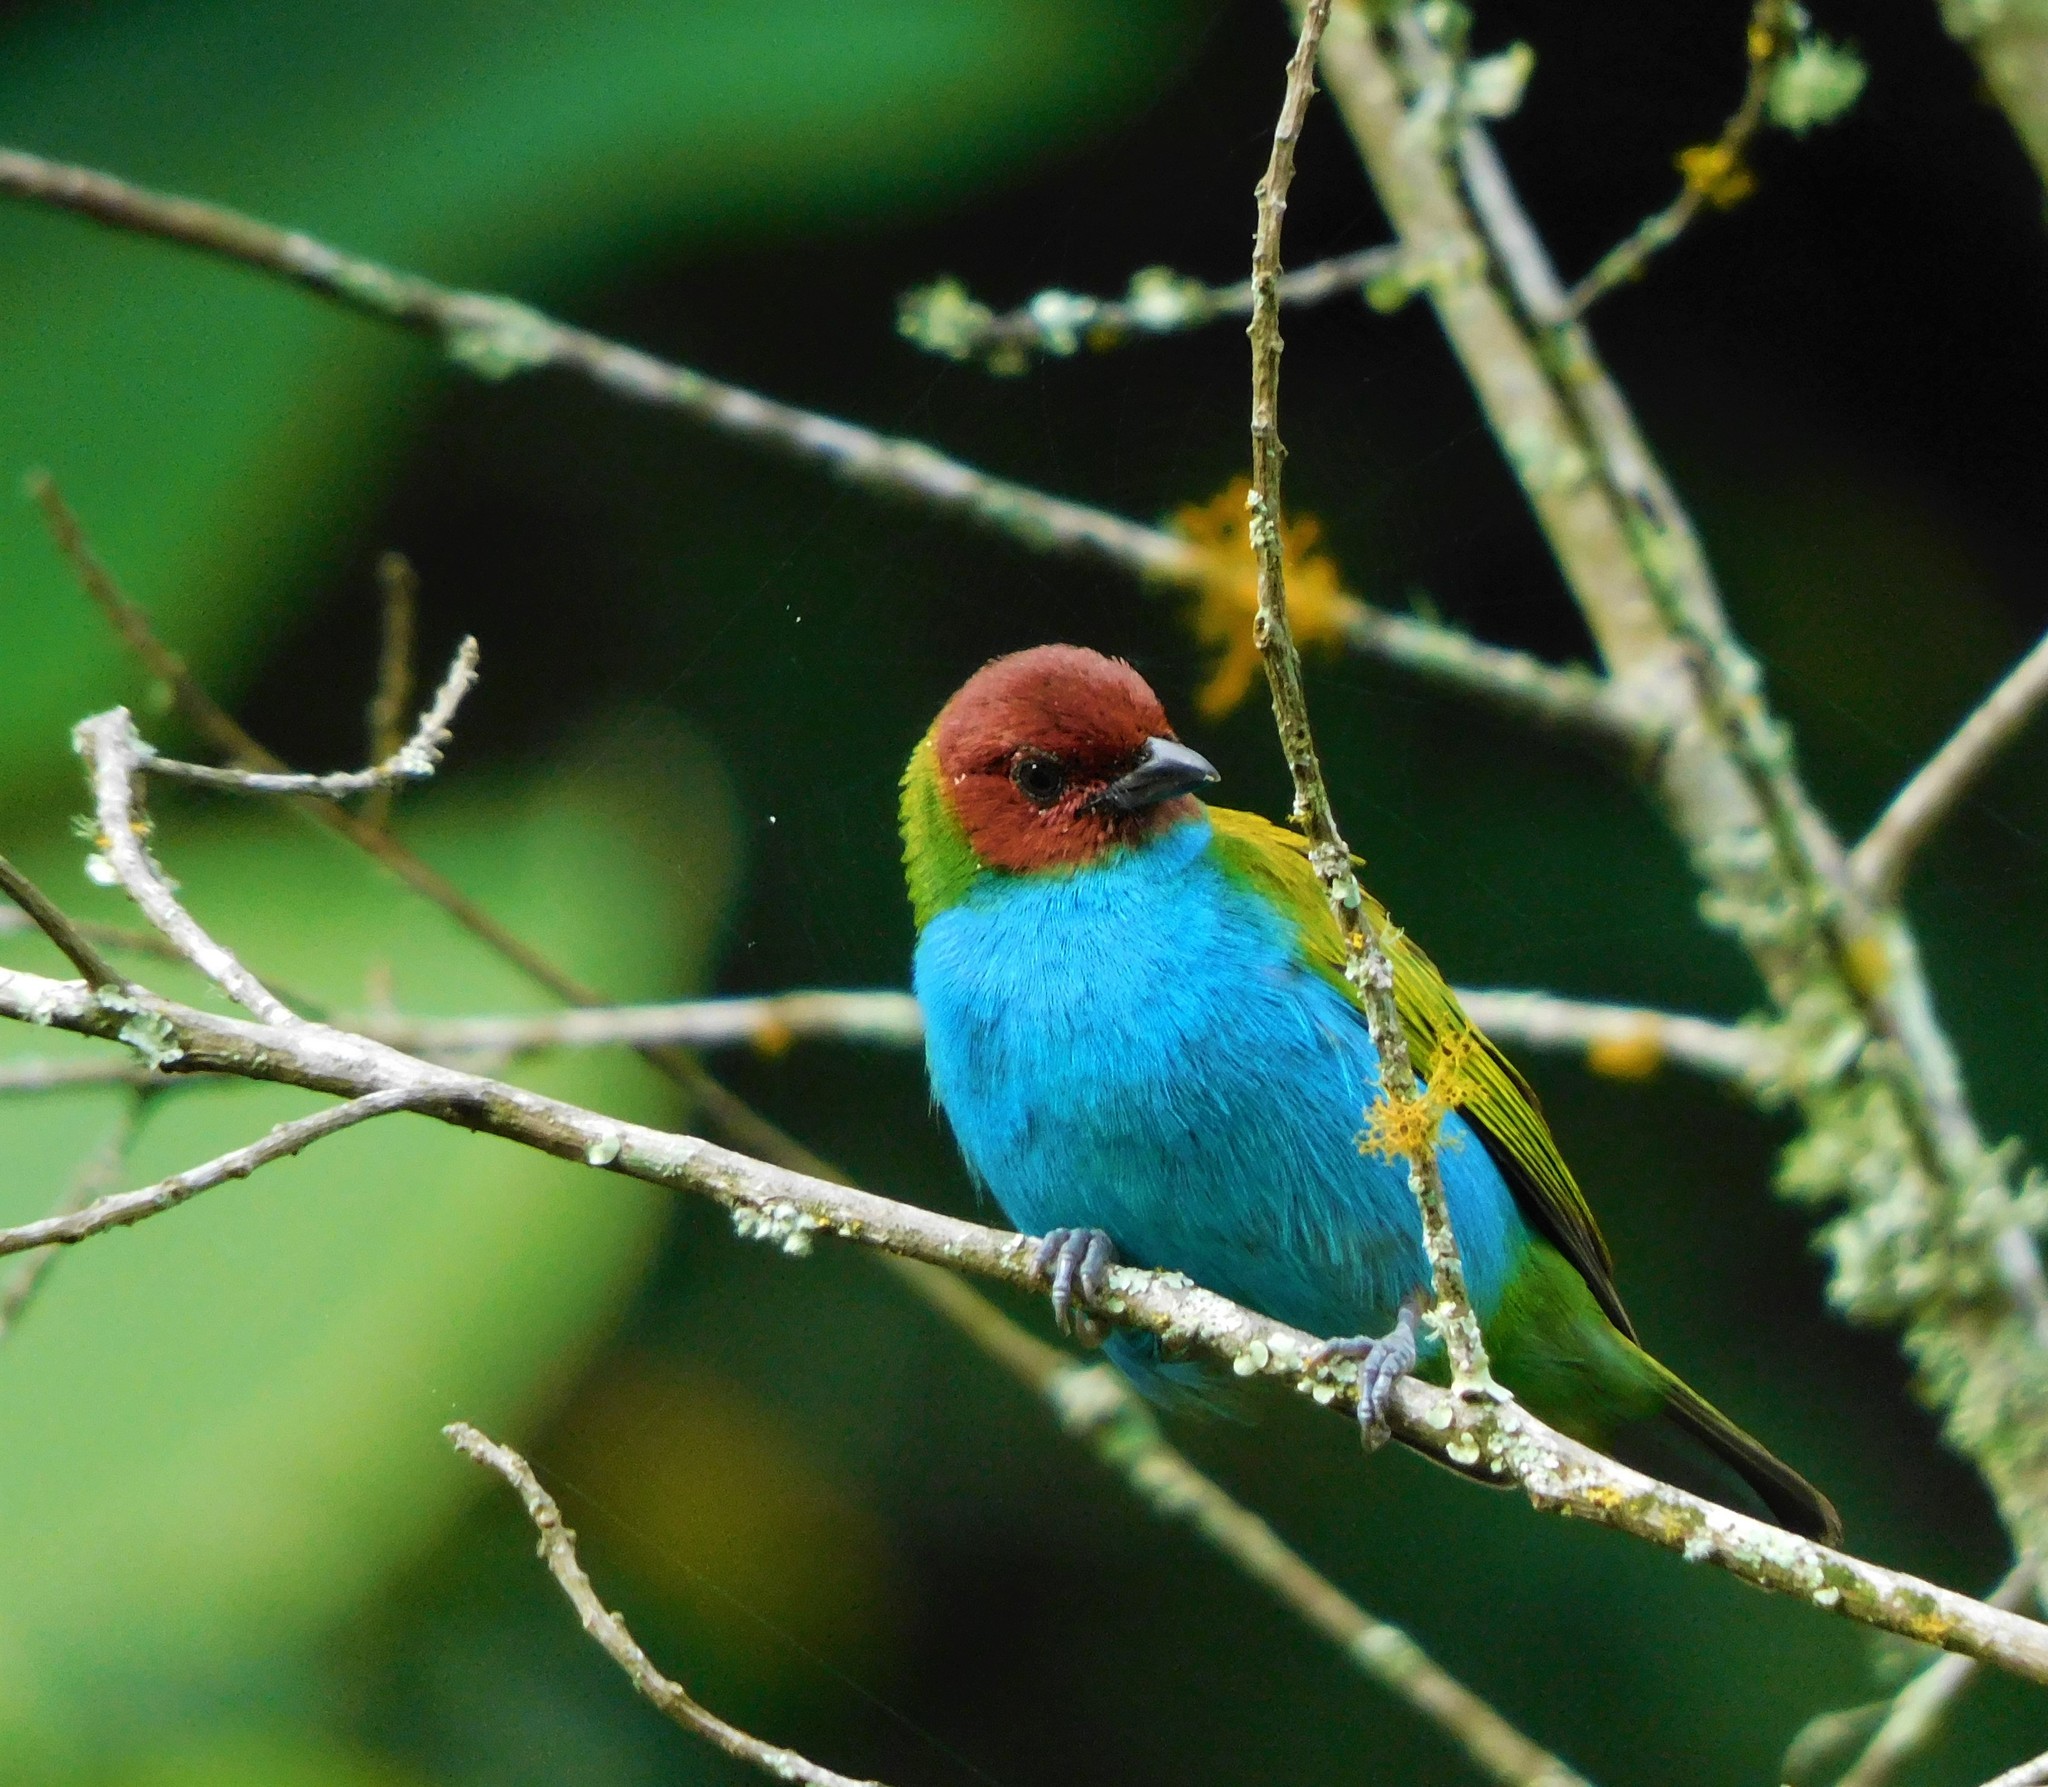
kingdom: Animalia
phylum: Chordata
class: Aves
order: Passeriformes
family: Thraupidae
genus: Tangara
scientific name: Tangara gyrola
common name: Bay-headed tanager
